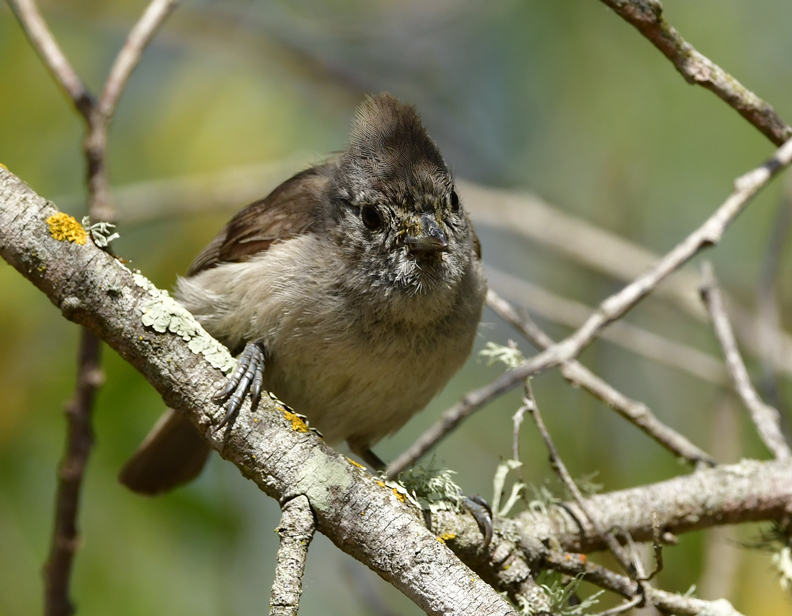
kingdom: Animalia
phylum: Chordata
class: Aves
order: Passeriformes
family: Paridae
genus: Baeolophus
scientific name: Baeolophus inornatus
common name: Oak titmouse
